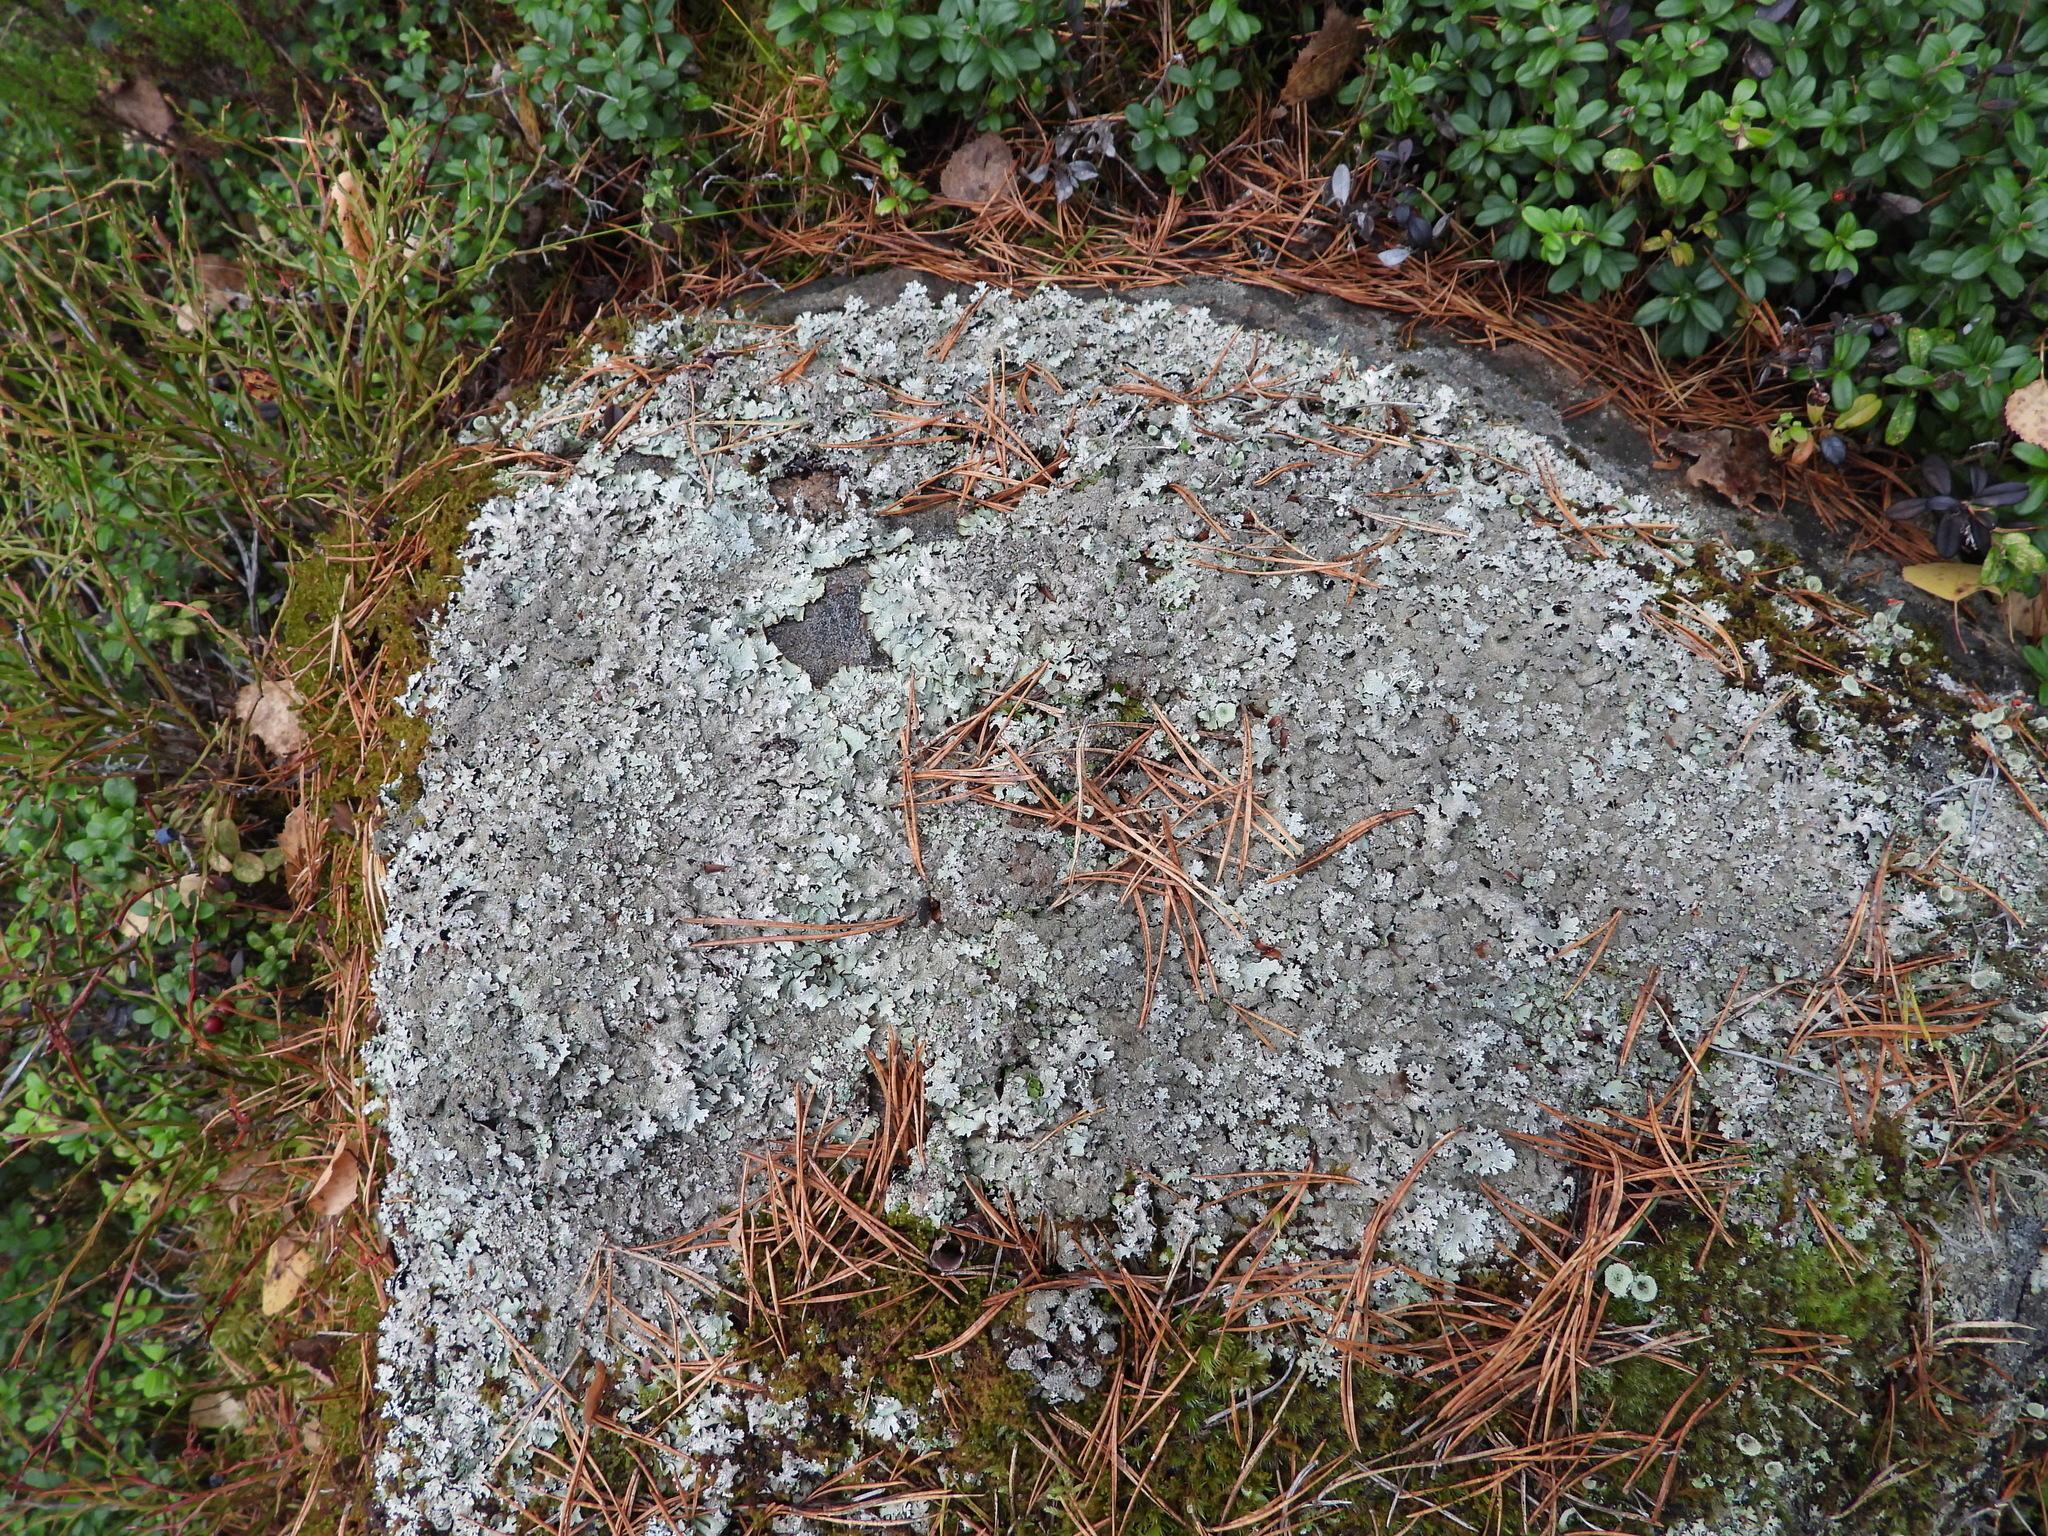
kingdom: Fungi
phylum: Ascomycota
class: Lecanoromycetes
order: Lecanorales
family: Parmeliaceae
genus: Parmelia
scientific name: Parmelia saxatilis
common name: Salted shield lichen
